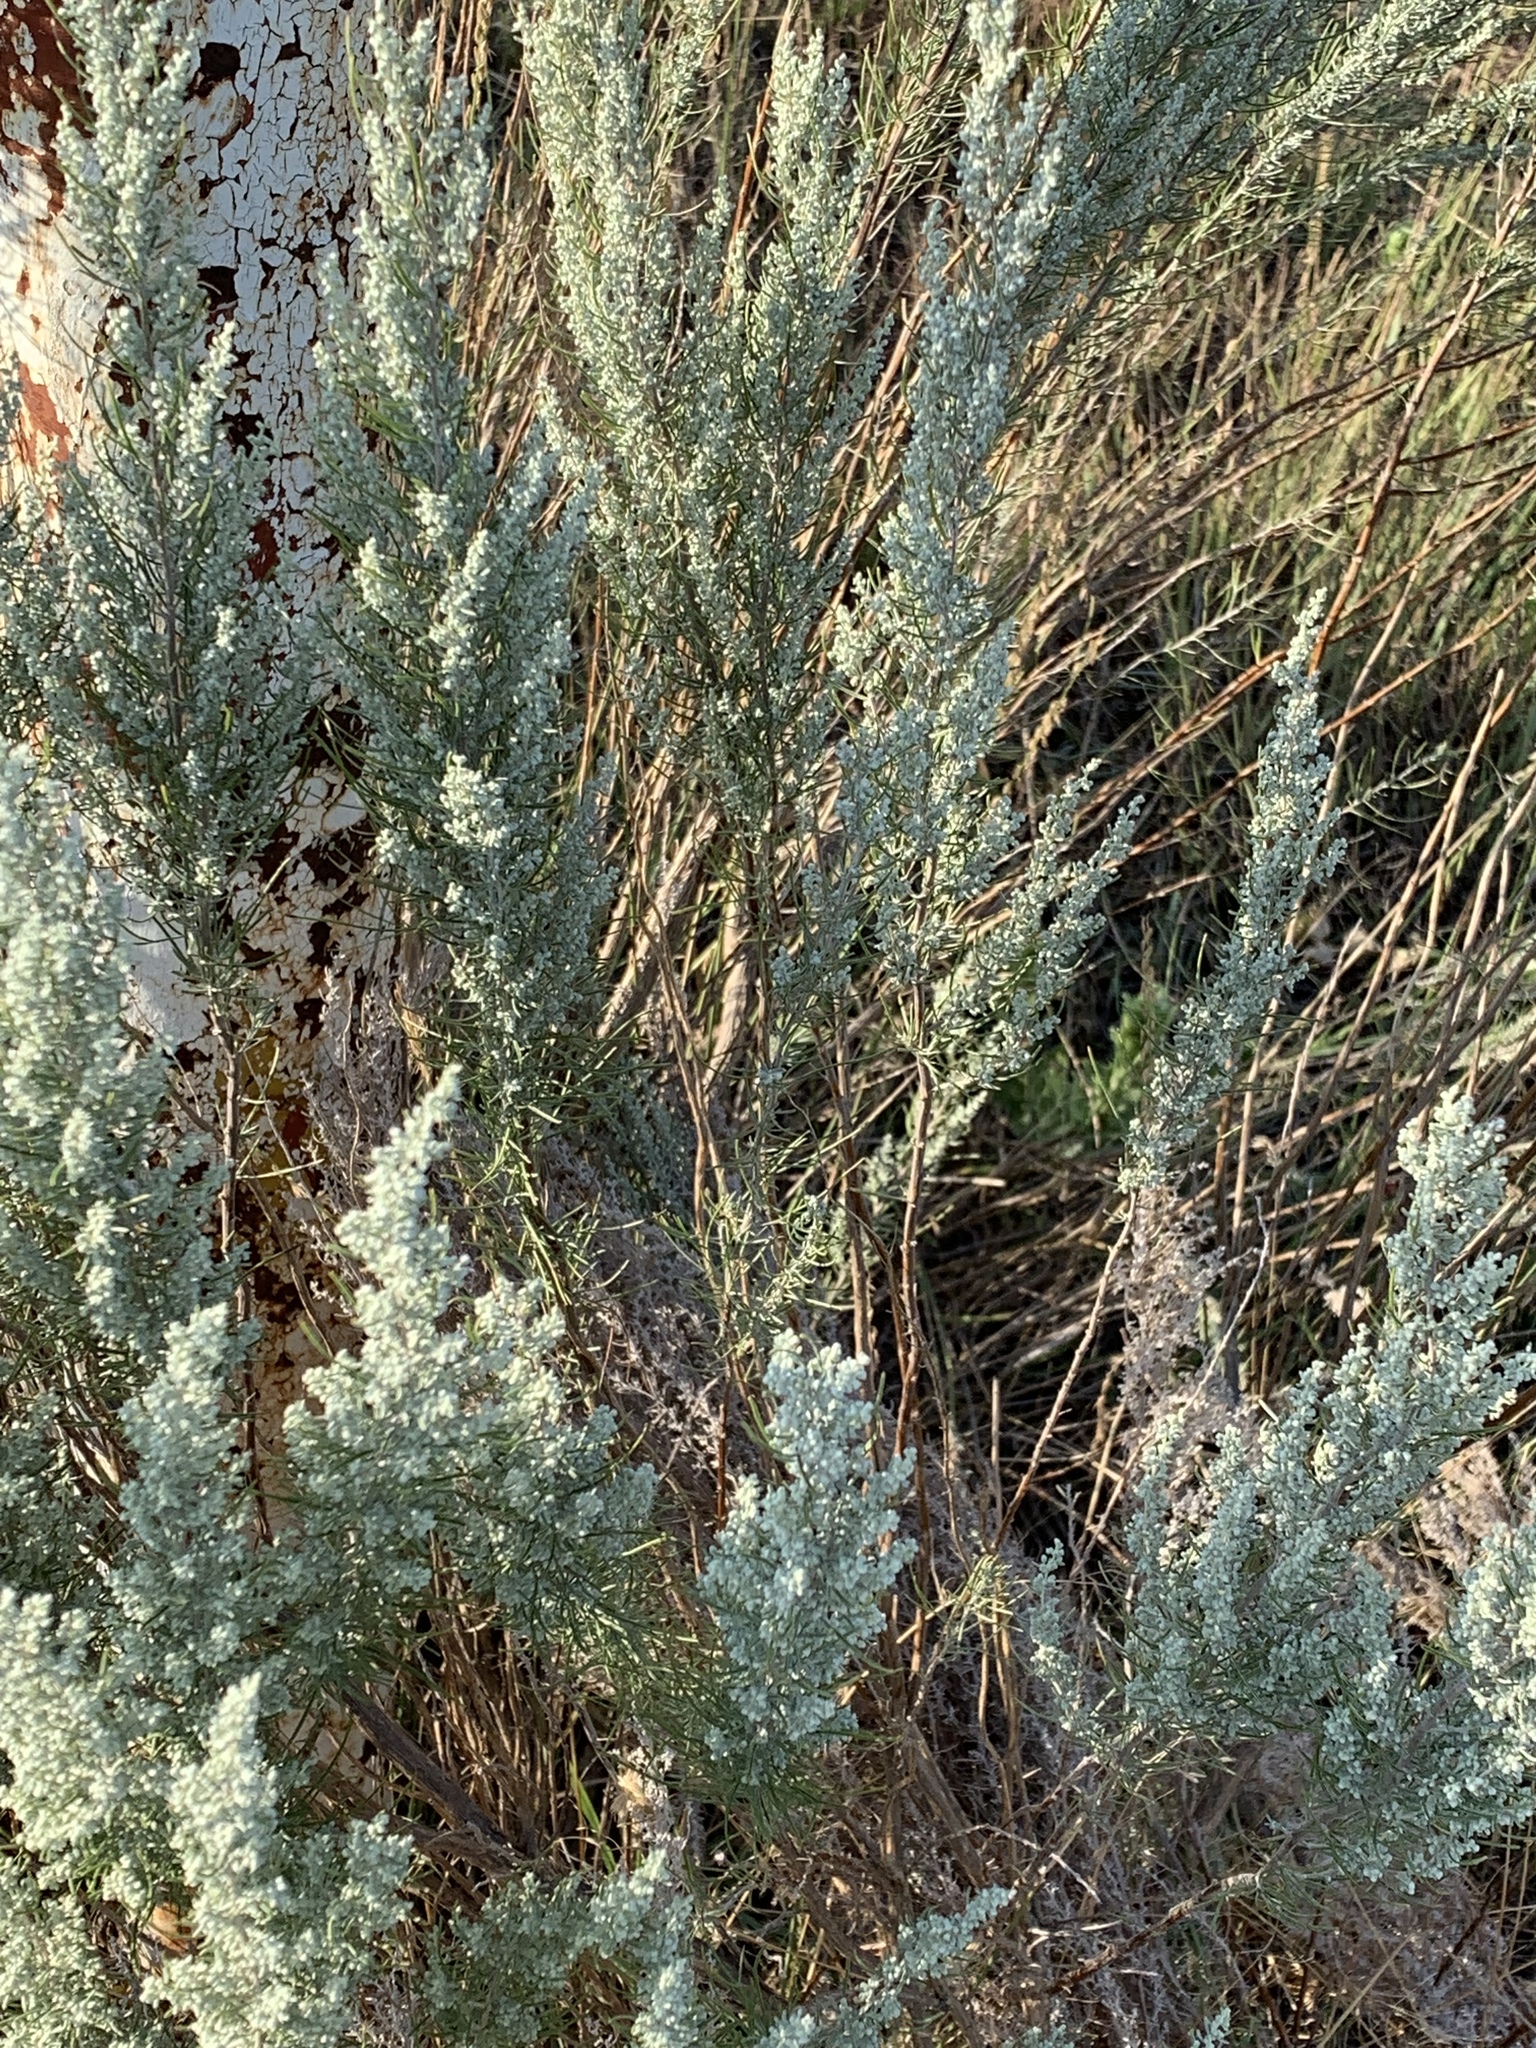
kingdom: Plantae
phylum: Tracheophyta
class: Magnoliopsida
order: Asterales
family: Asteraceae
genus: Artemisia
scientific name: Artemisia filifolia
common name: Sand-sage
